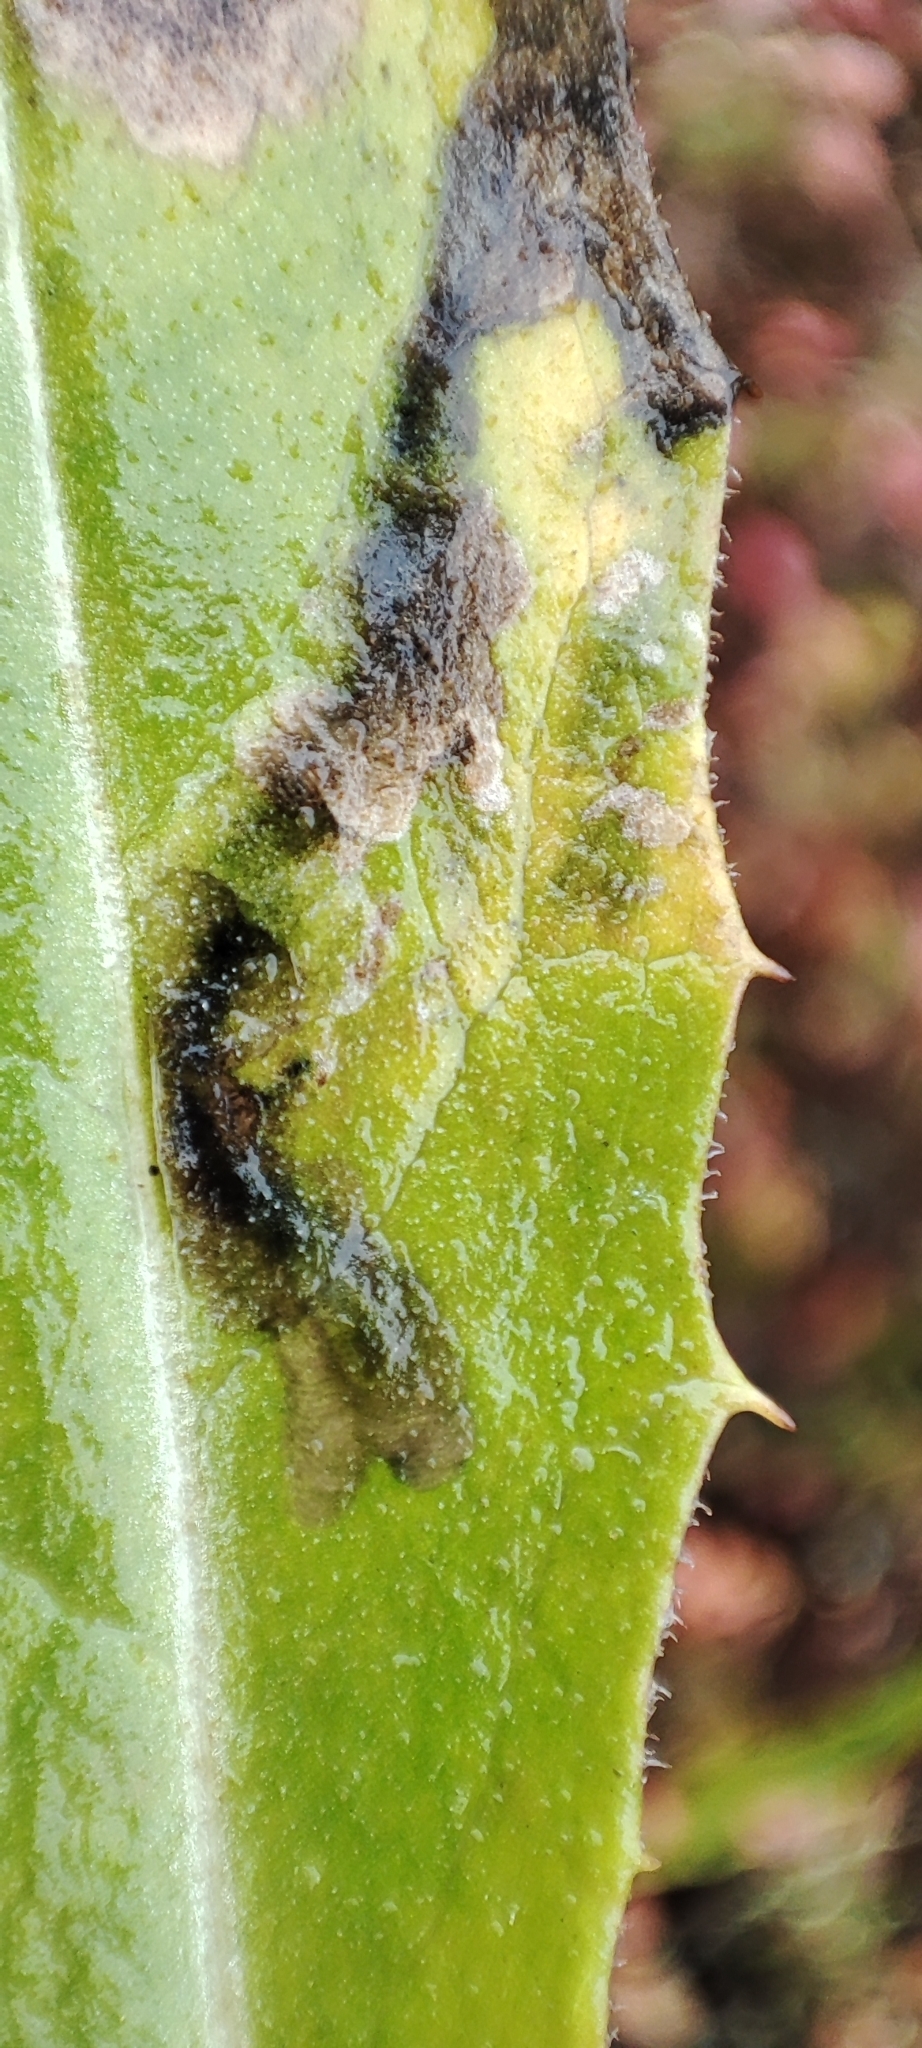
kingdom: Plantae
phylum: Tracheophyta
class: Magnoliopsida
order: Asterales
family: Asteraceae
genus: Saussurea
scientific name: Saussurea alpina
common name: Alpine saw-wort
